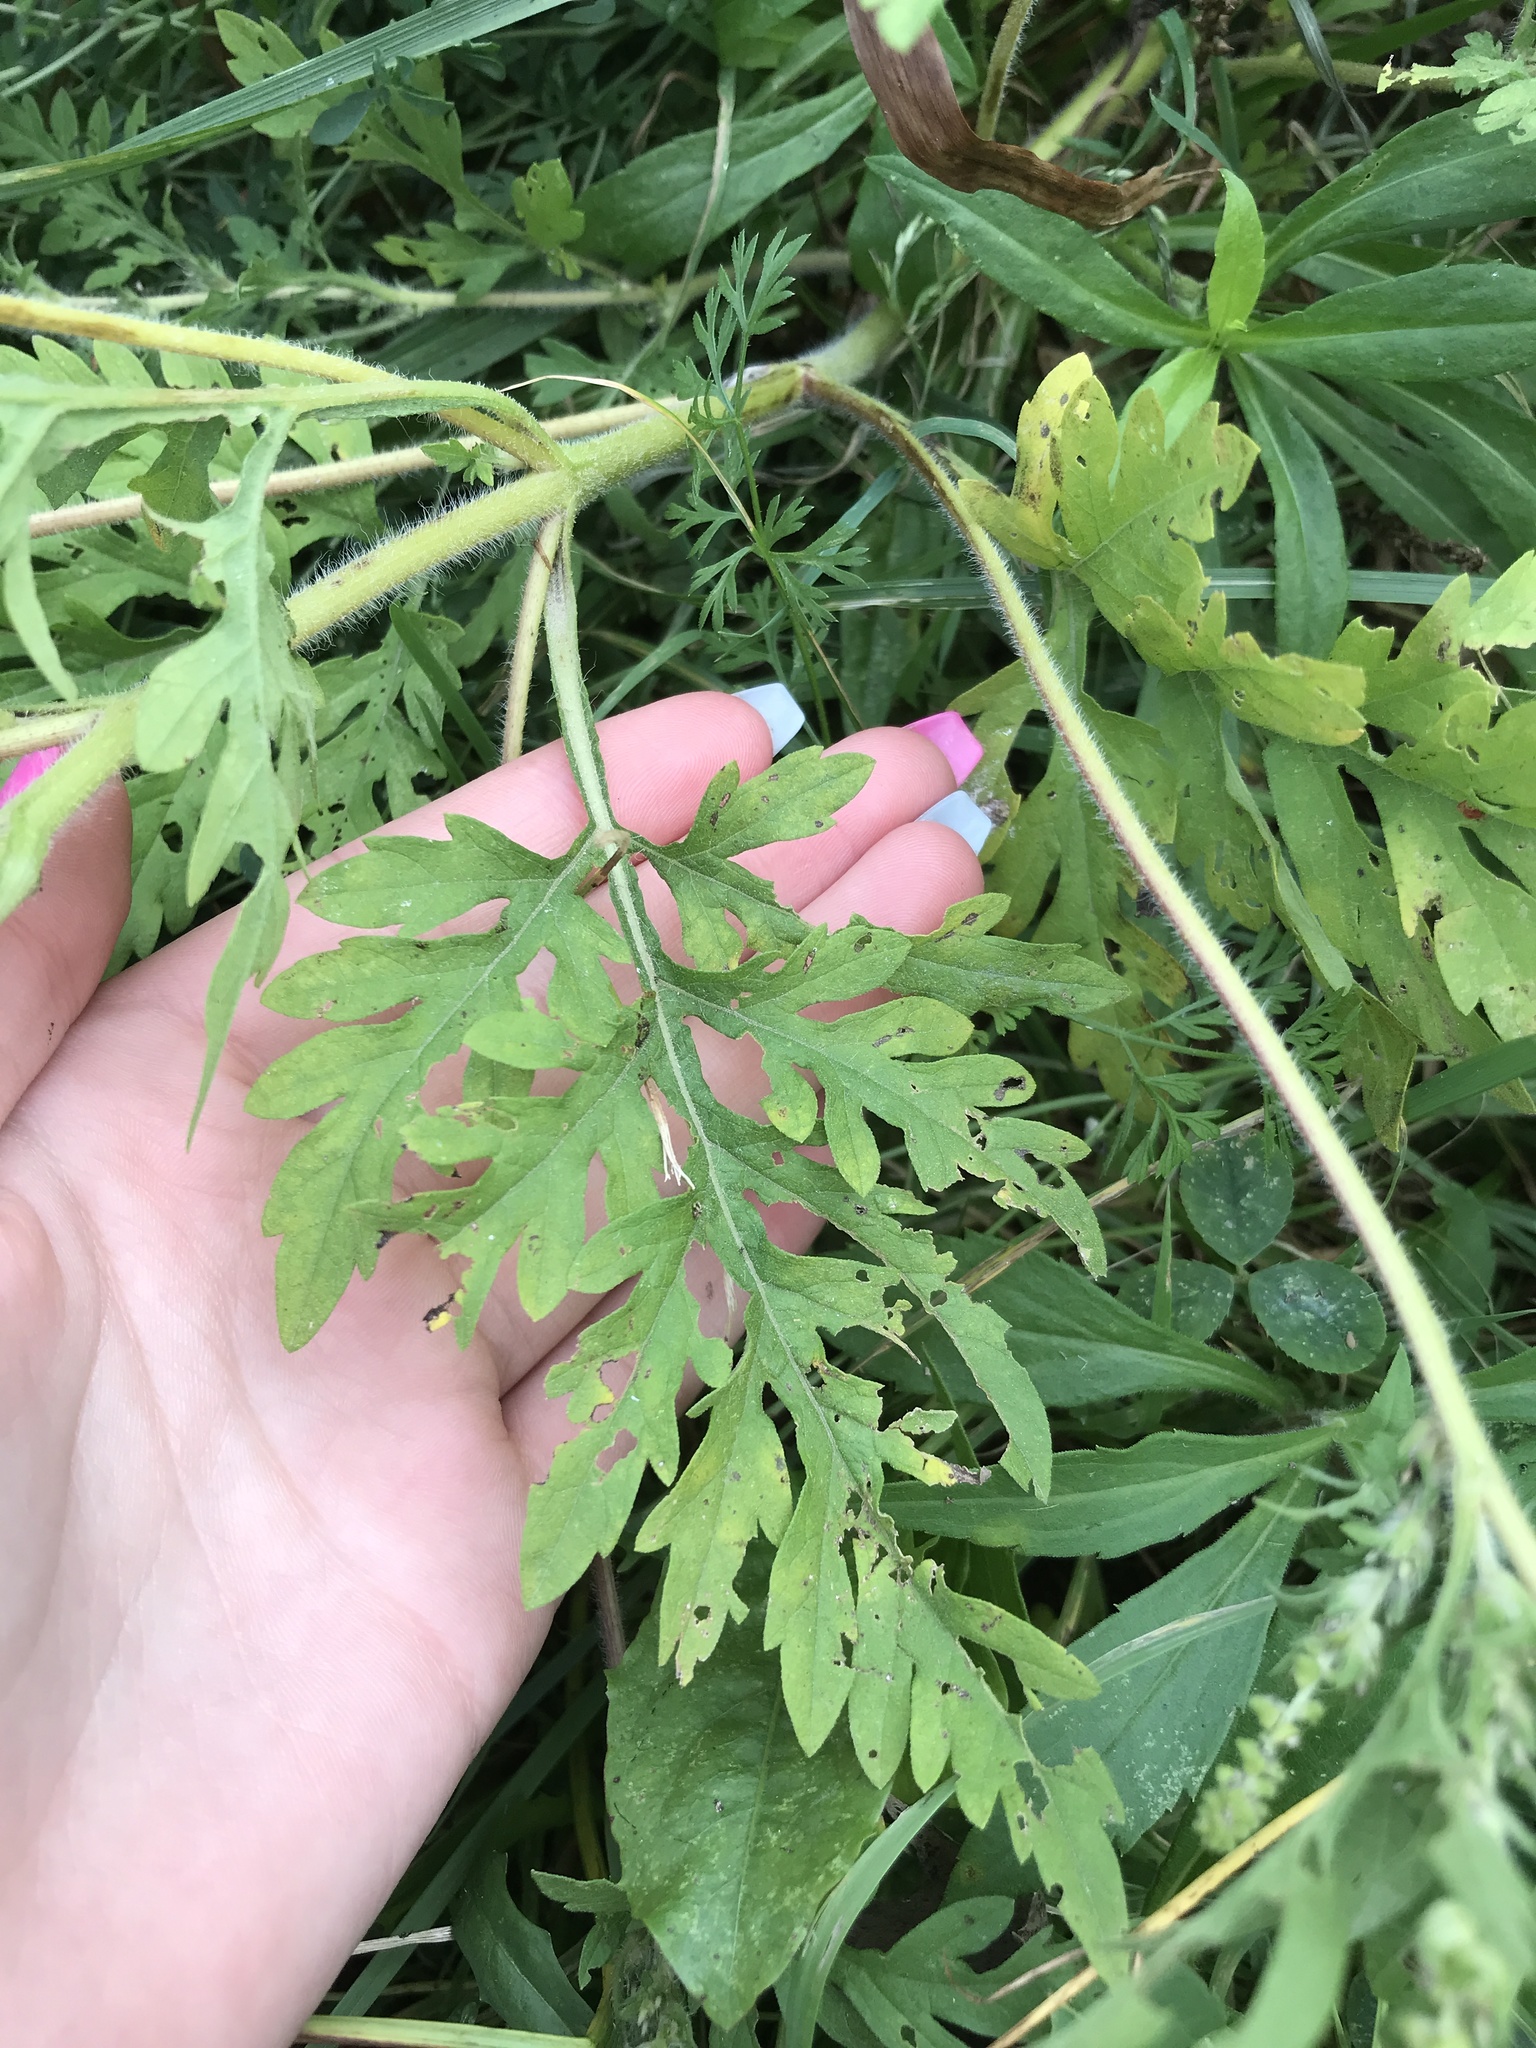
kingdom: Plantae
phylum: Tracheophyta
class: Magnoliopsida
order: Asterales
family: Asteraceae
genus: Ambrosia
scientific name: Ambrosia artemisiifolia
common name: Annual ragweed
